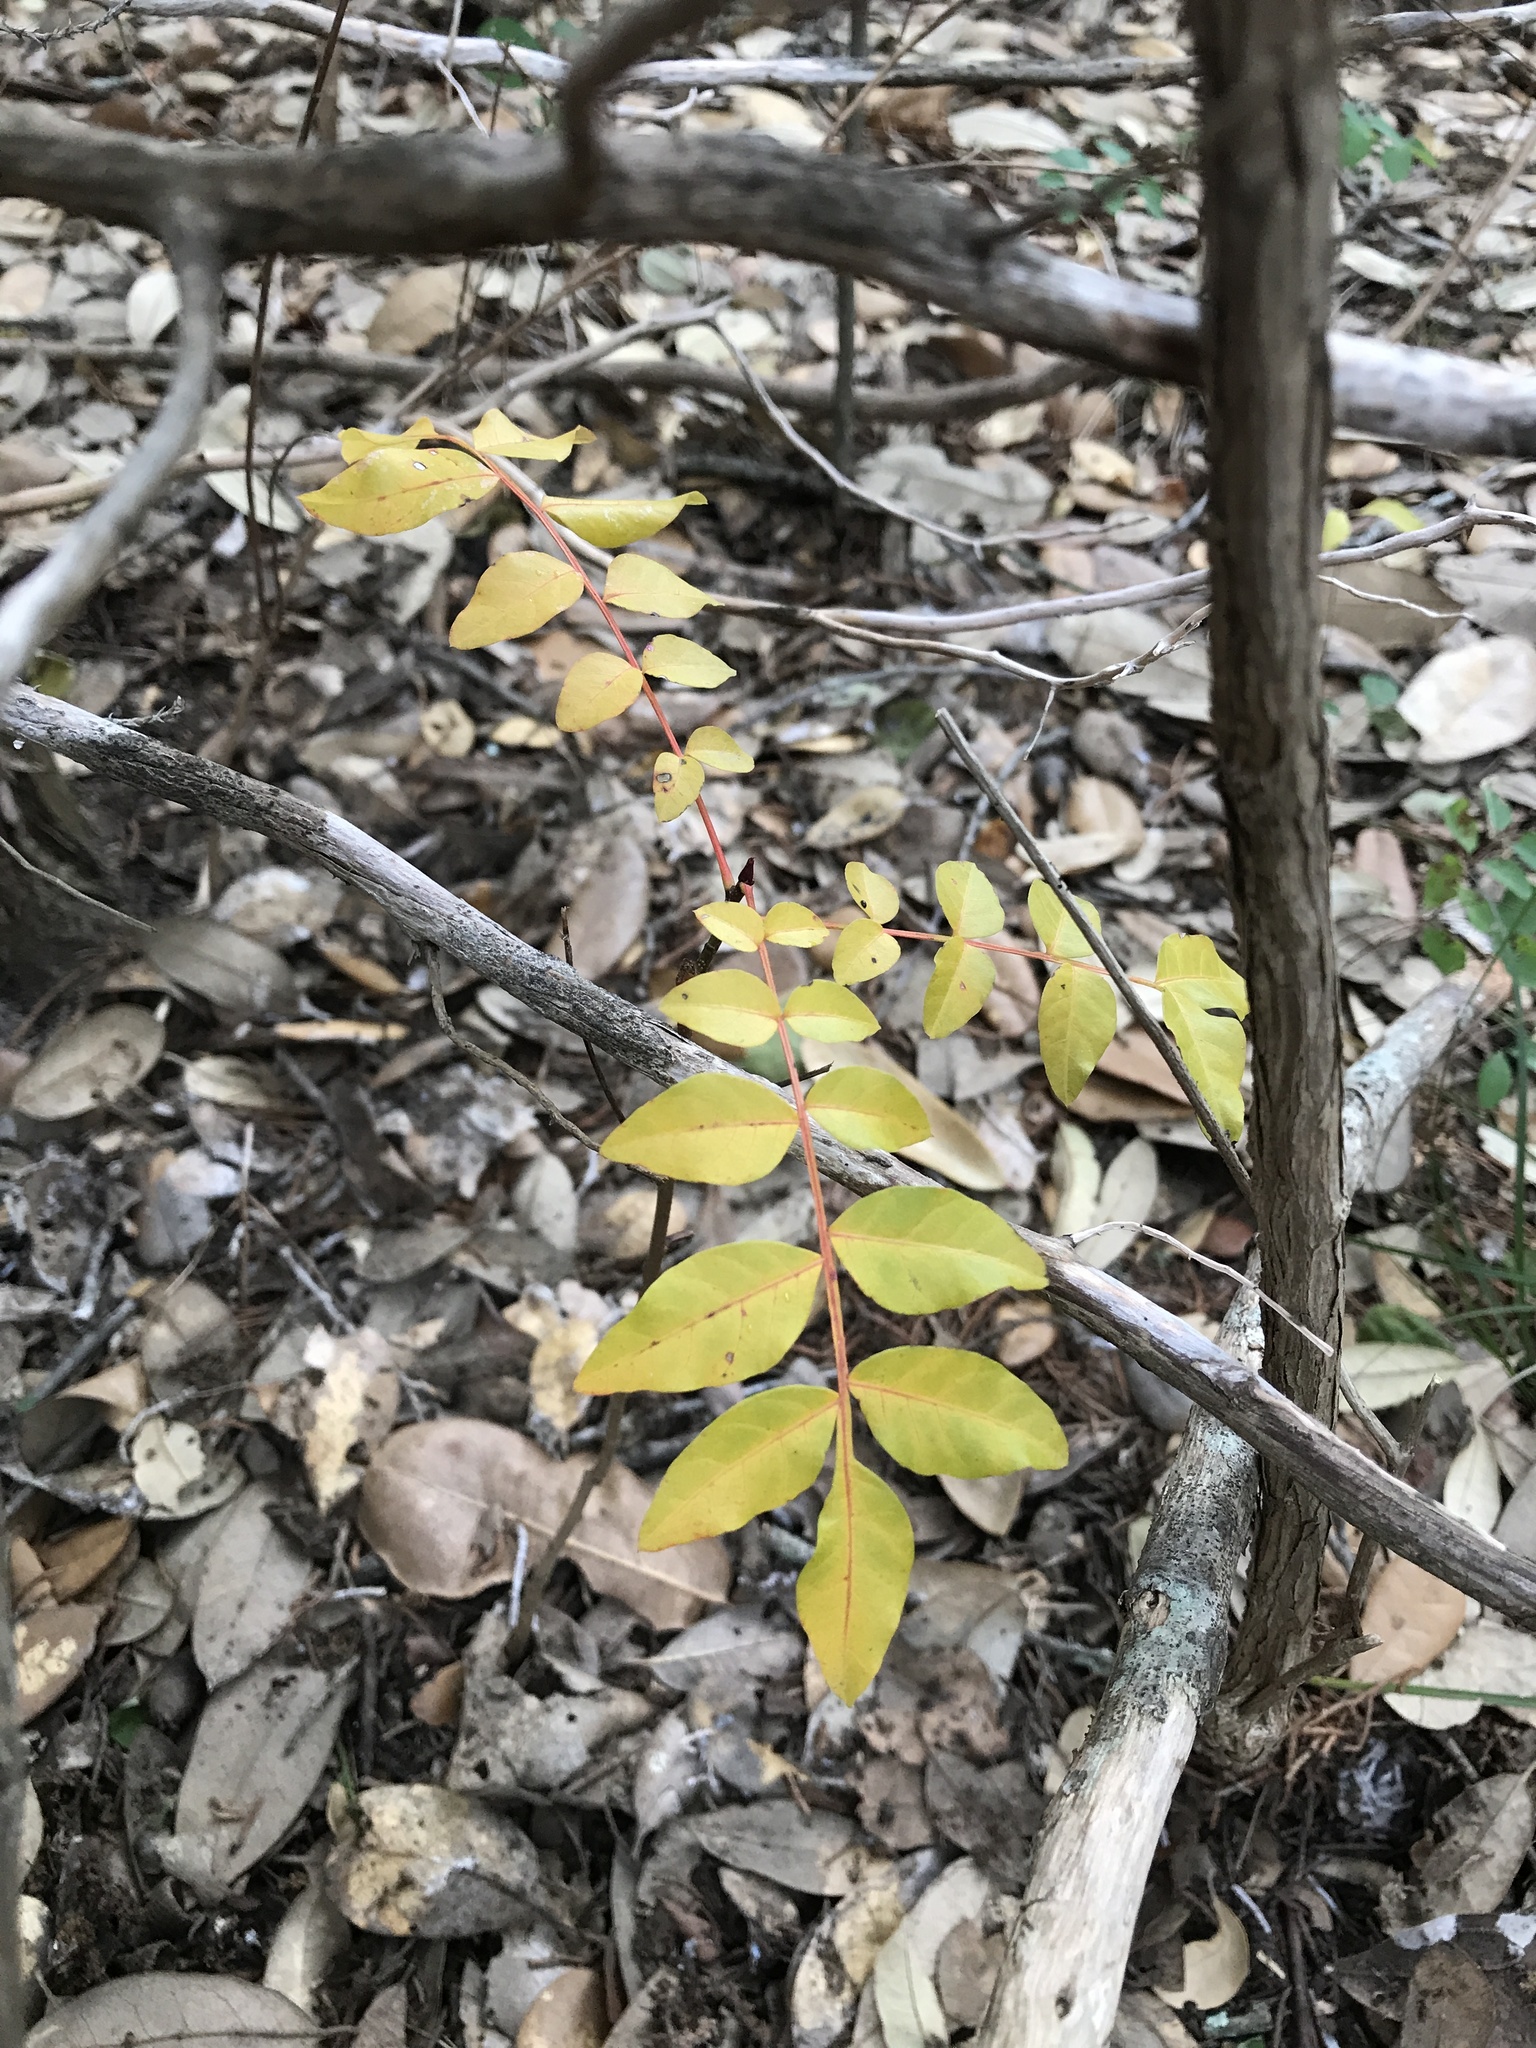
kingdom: Plantae
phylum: Tracheophyta
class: Magnoliopsida
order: Sapindales
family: Anacardiaceae
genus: Pistacia
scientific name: Pistacia chinensis
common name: Chinese pistache
